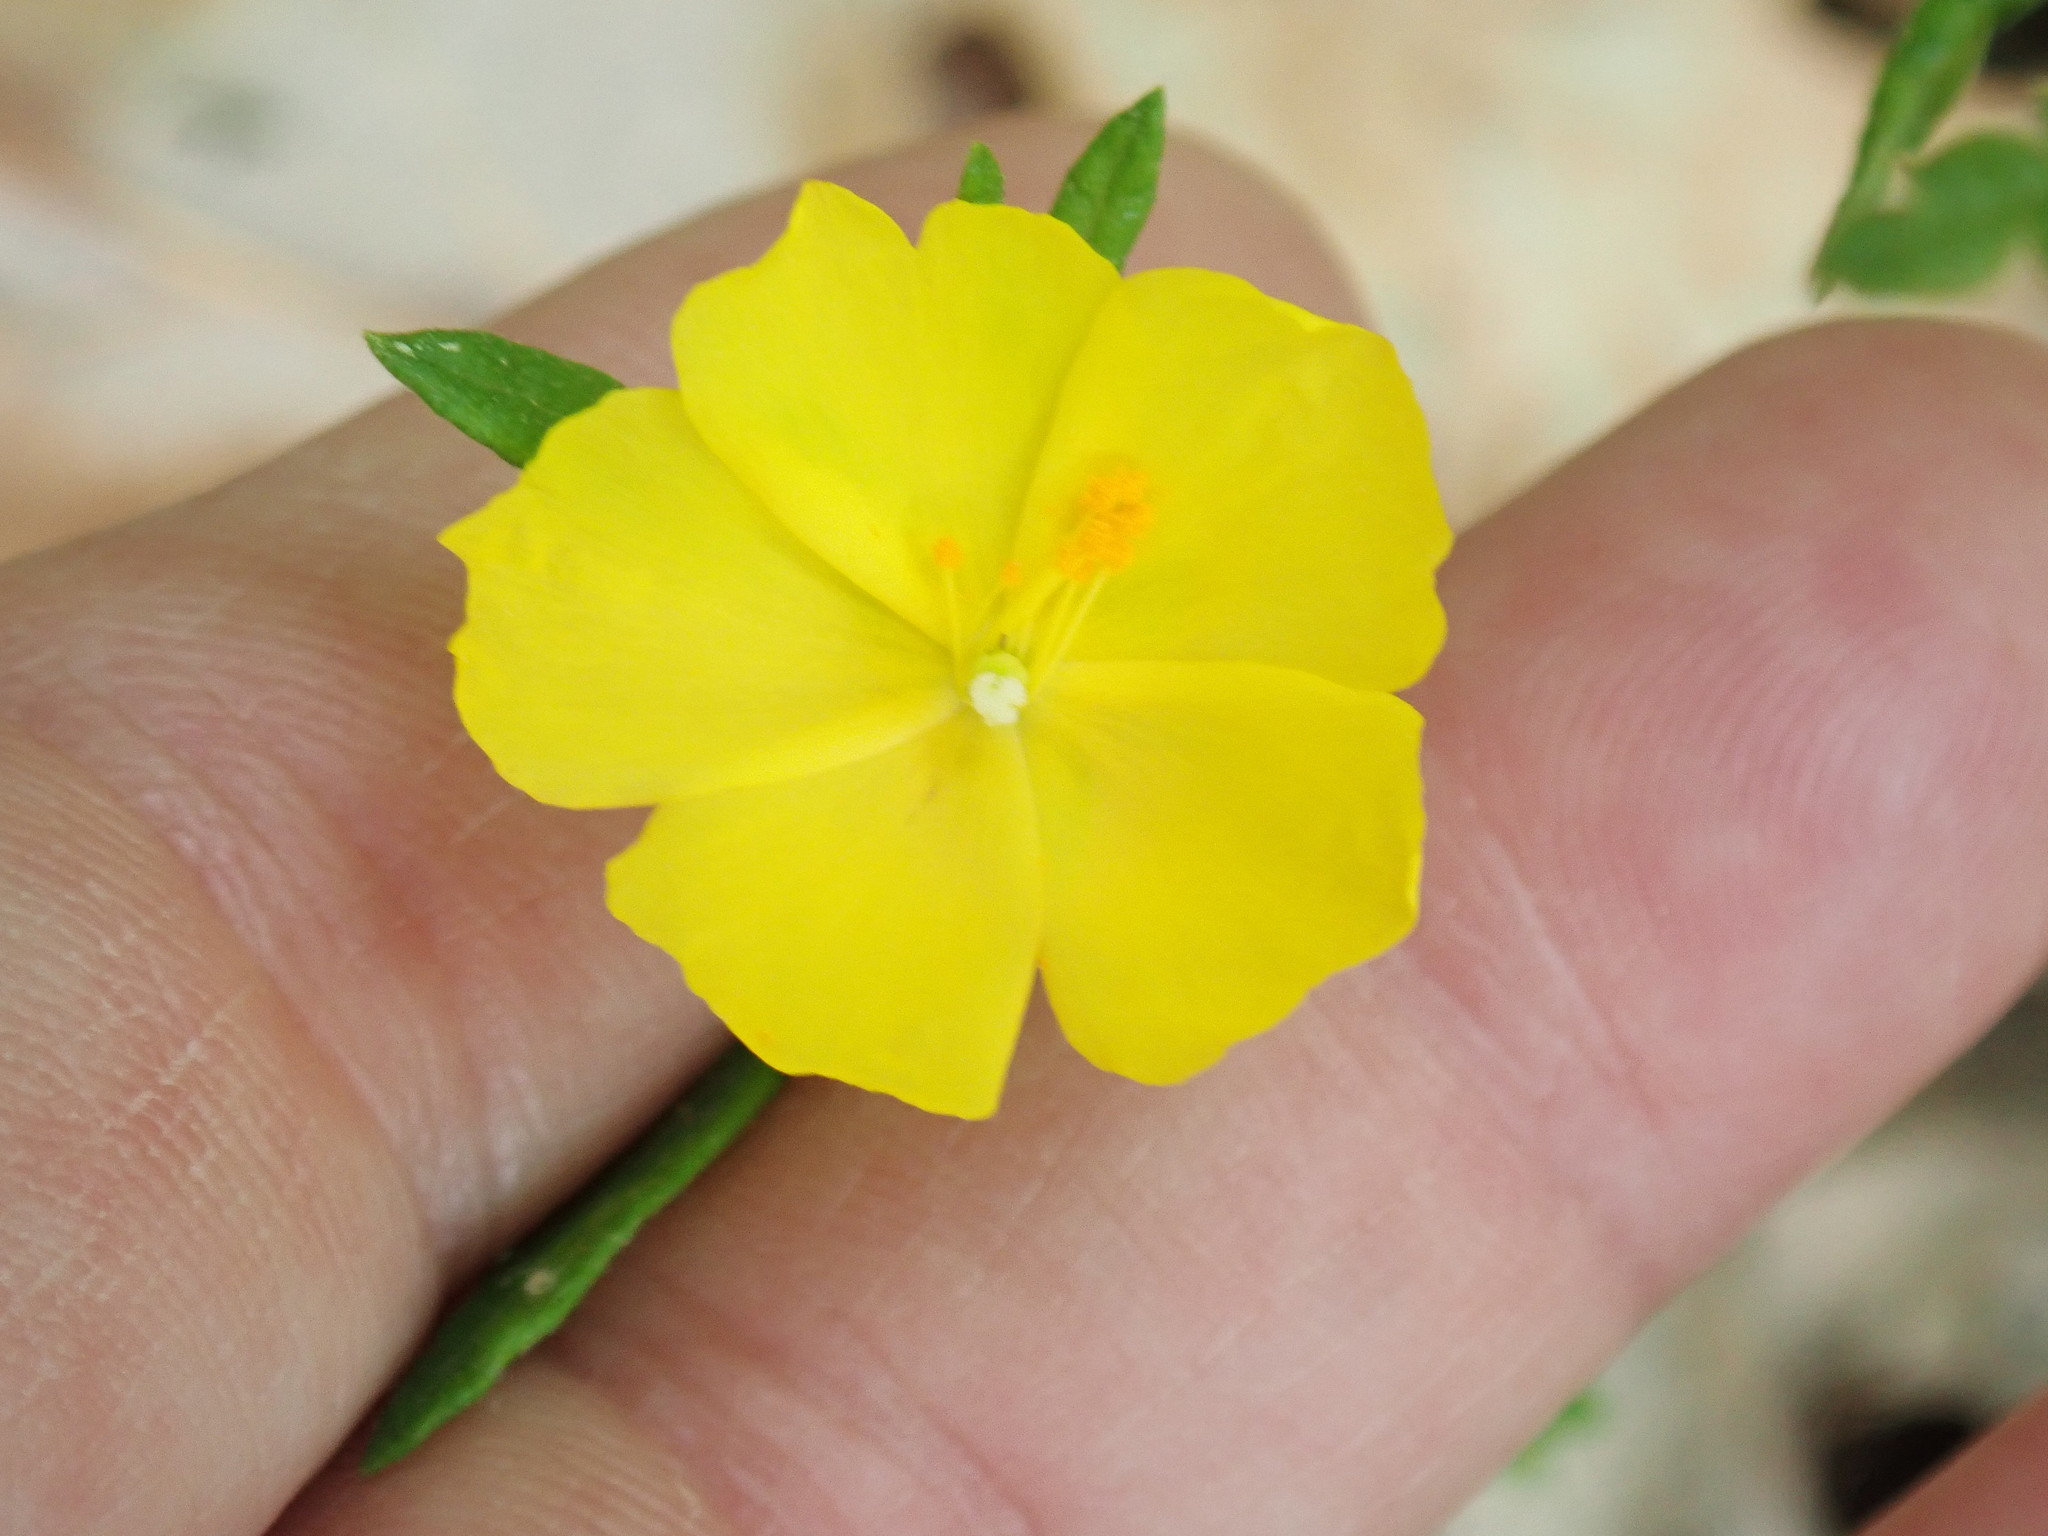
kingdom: Plantae
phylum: Tracheophyta
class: Magnoliopsida
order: Malvales
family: Cistaceae
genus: Crocanthemum
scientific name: Crocanthemum canadense
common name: Canada frostweed
